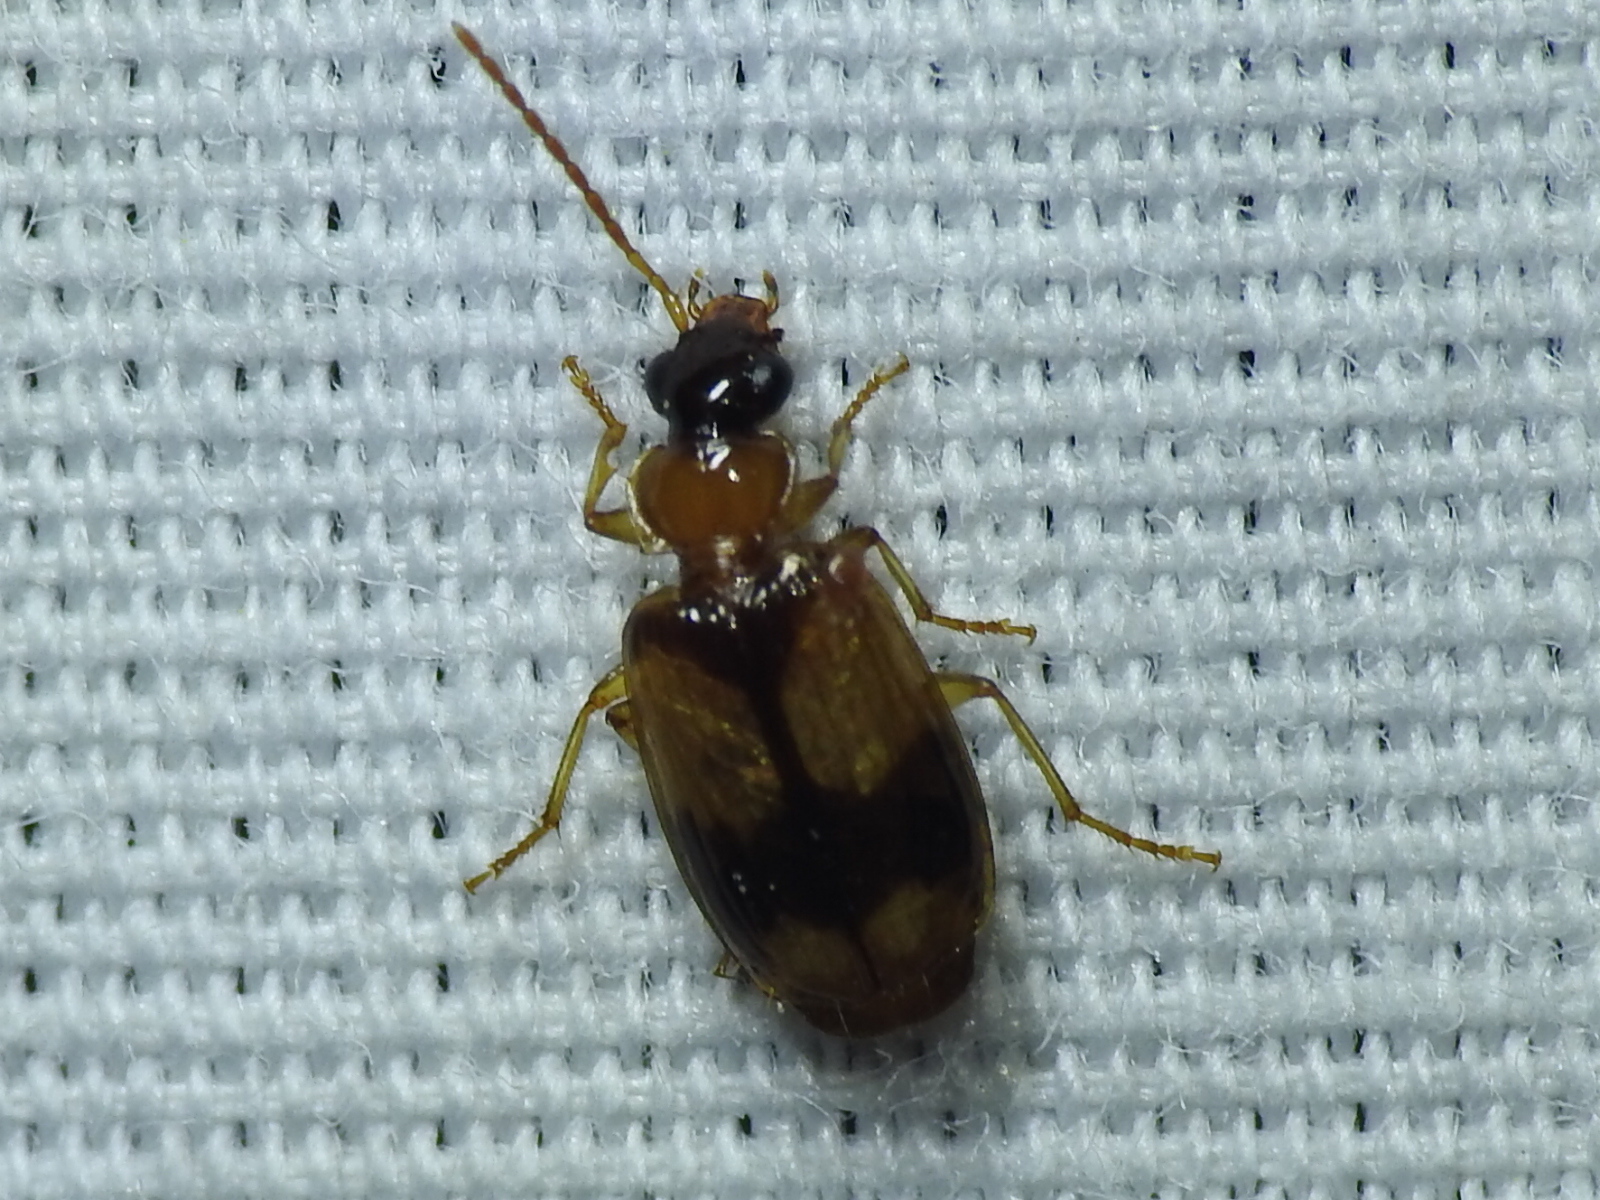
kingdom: Animalia
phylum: Arthropoda
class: Insecta
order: Coleoptera
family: Carabidae
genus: Lebia
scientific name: Lebia esurialis
